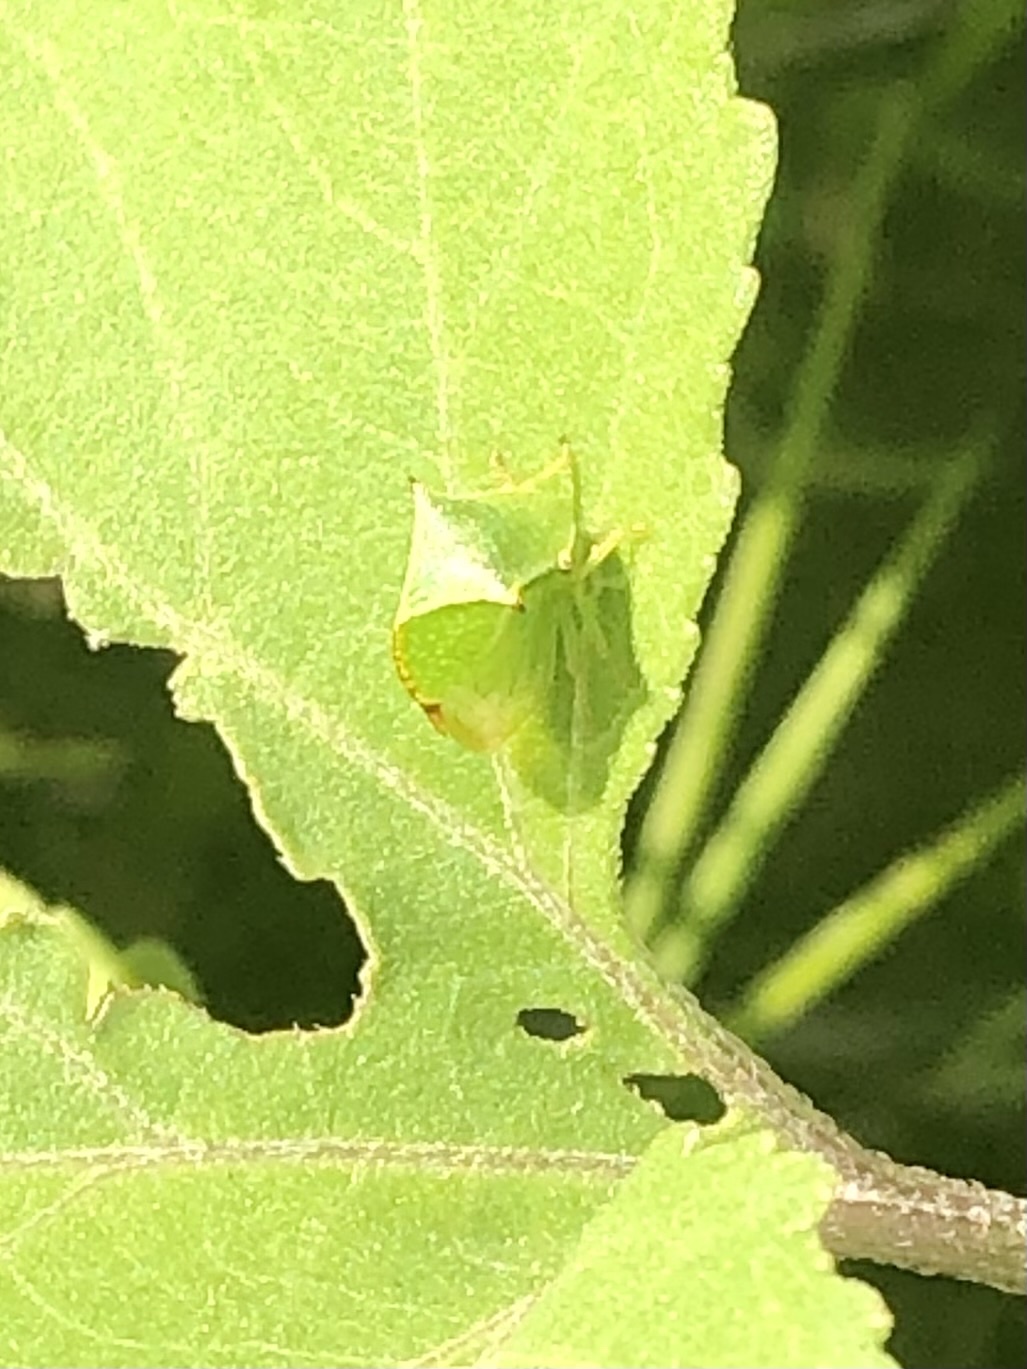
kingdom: Animalia
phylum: Arthropoda
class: Insecta
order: Hemiptera
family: Membracidae
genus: Stictocephala
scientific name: Stictocephala bisonia
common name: American buffalo treehopper
